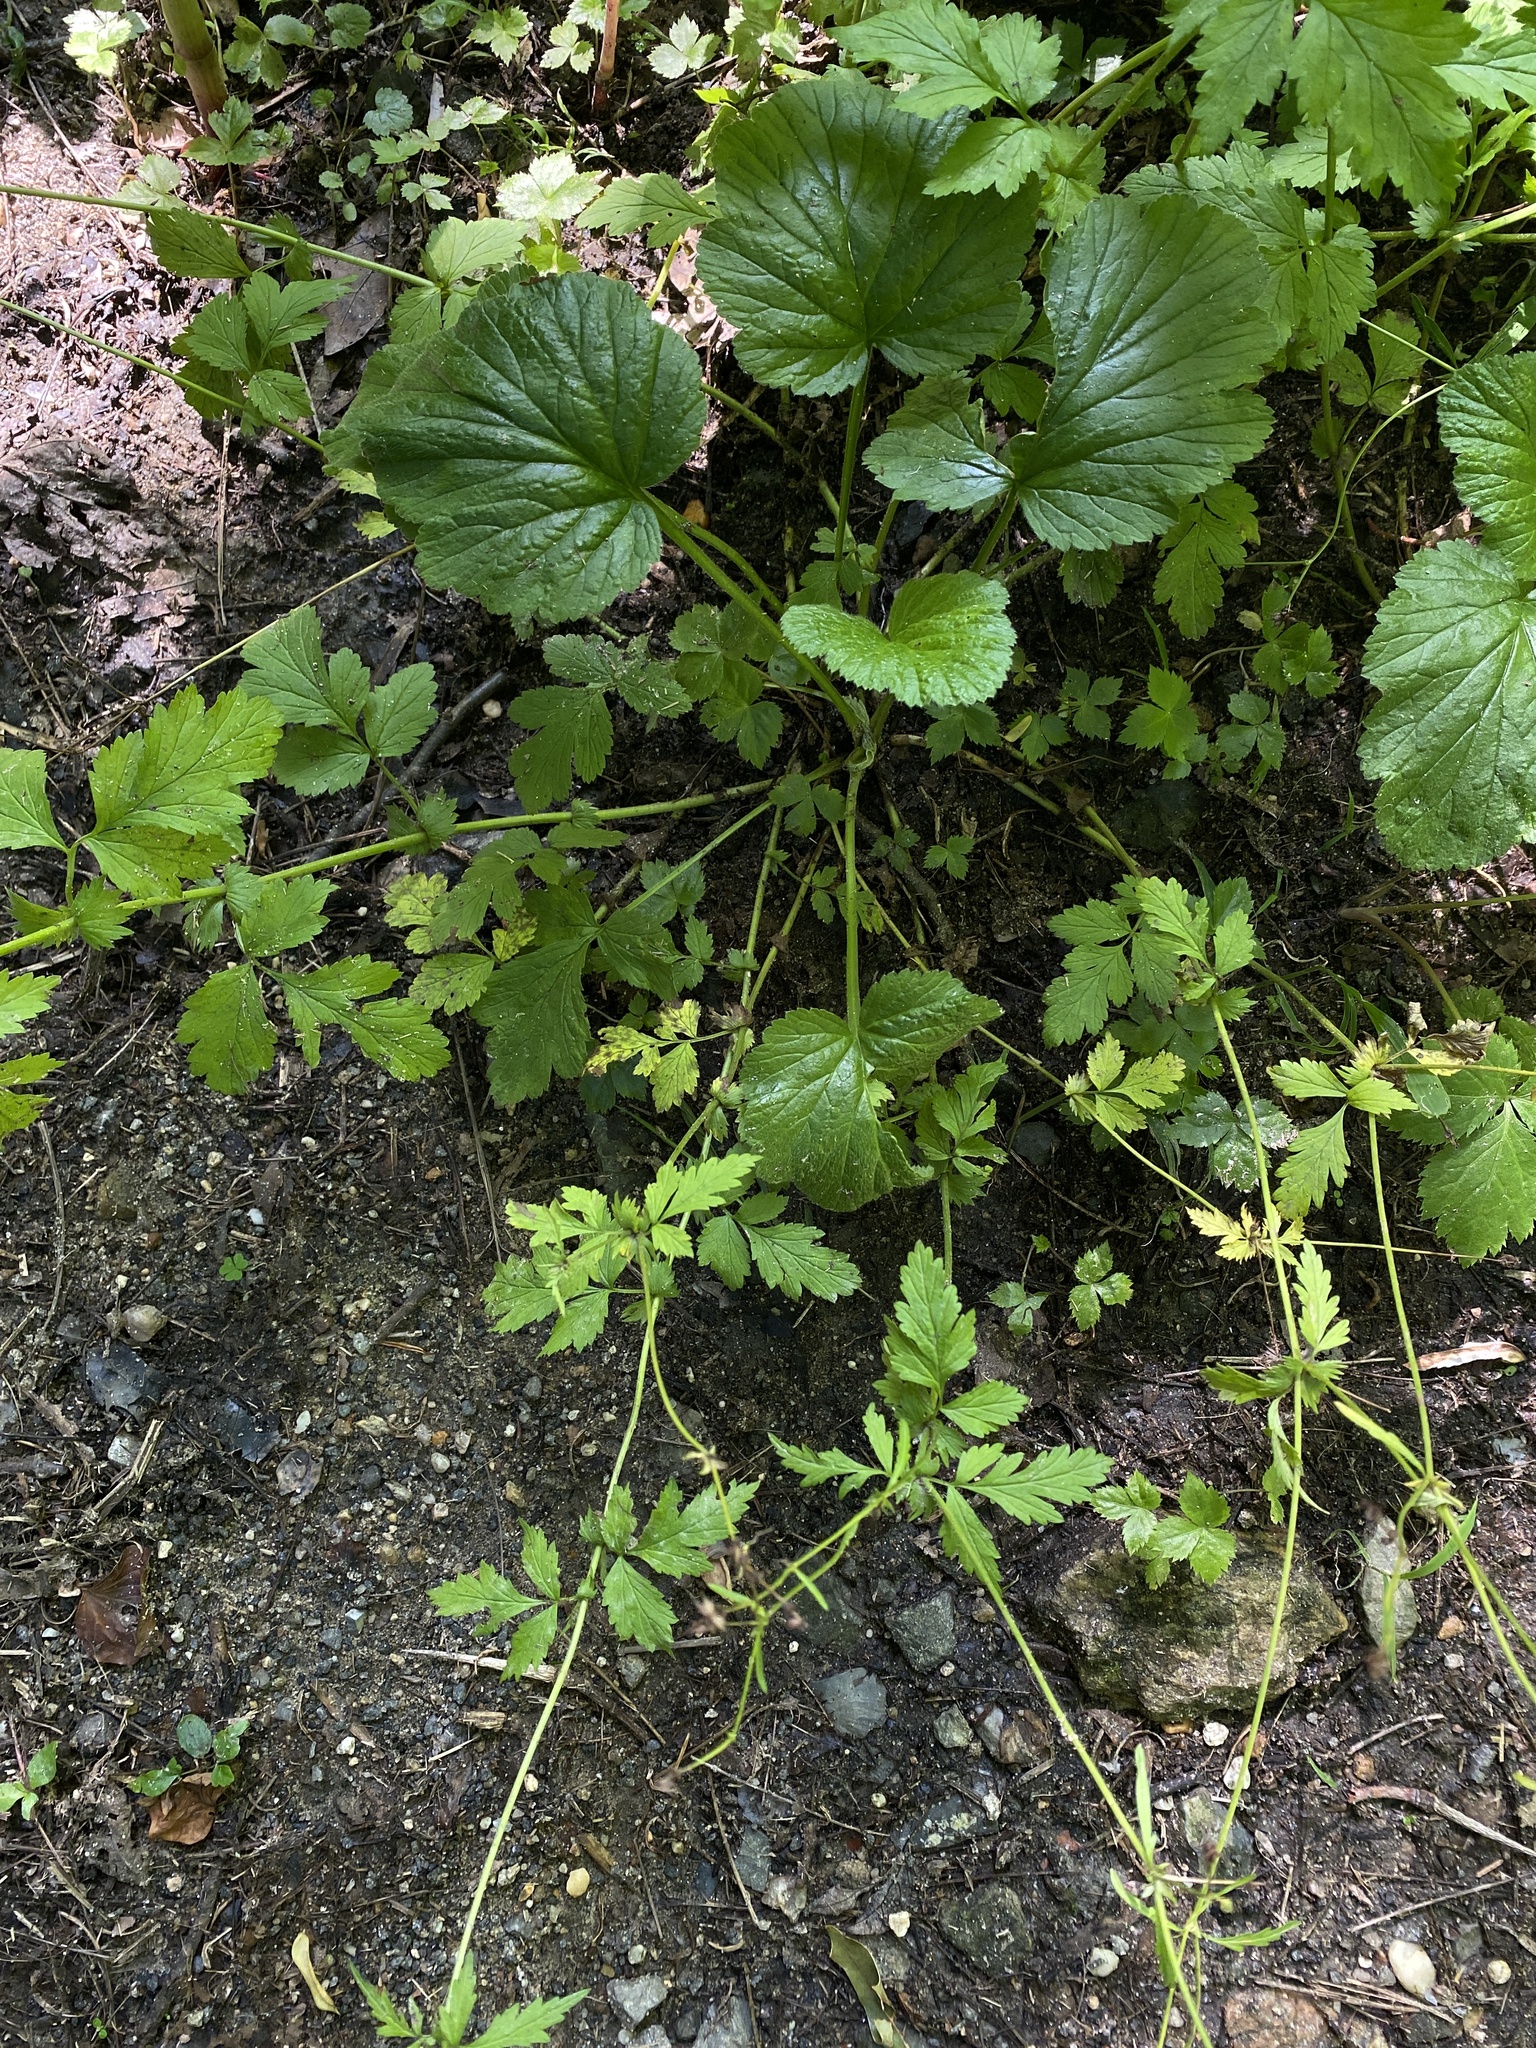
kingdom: Plantae
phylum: Tracheophyta
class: Magnoliopsida
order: Rosales
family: Rosaceae
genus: Geum
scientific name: Geum vernum
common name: Spring avens
